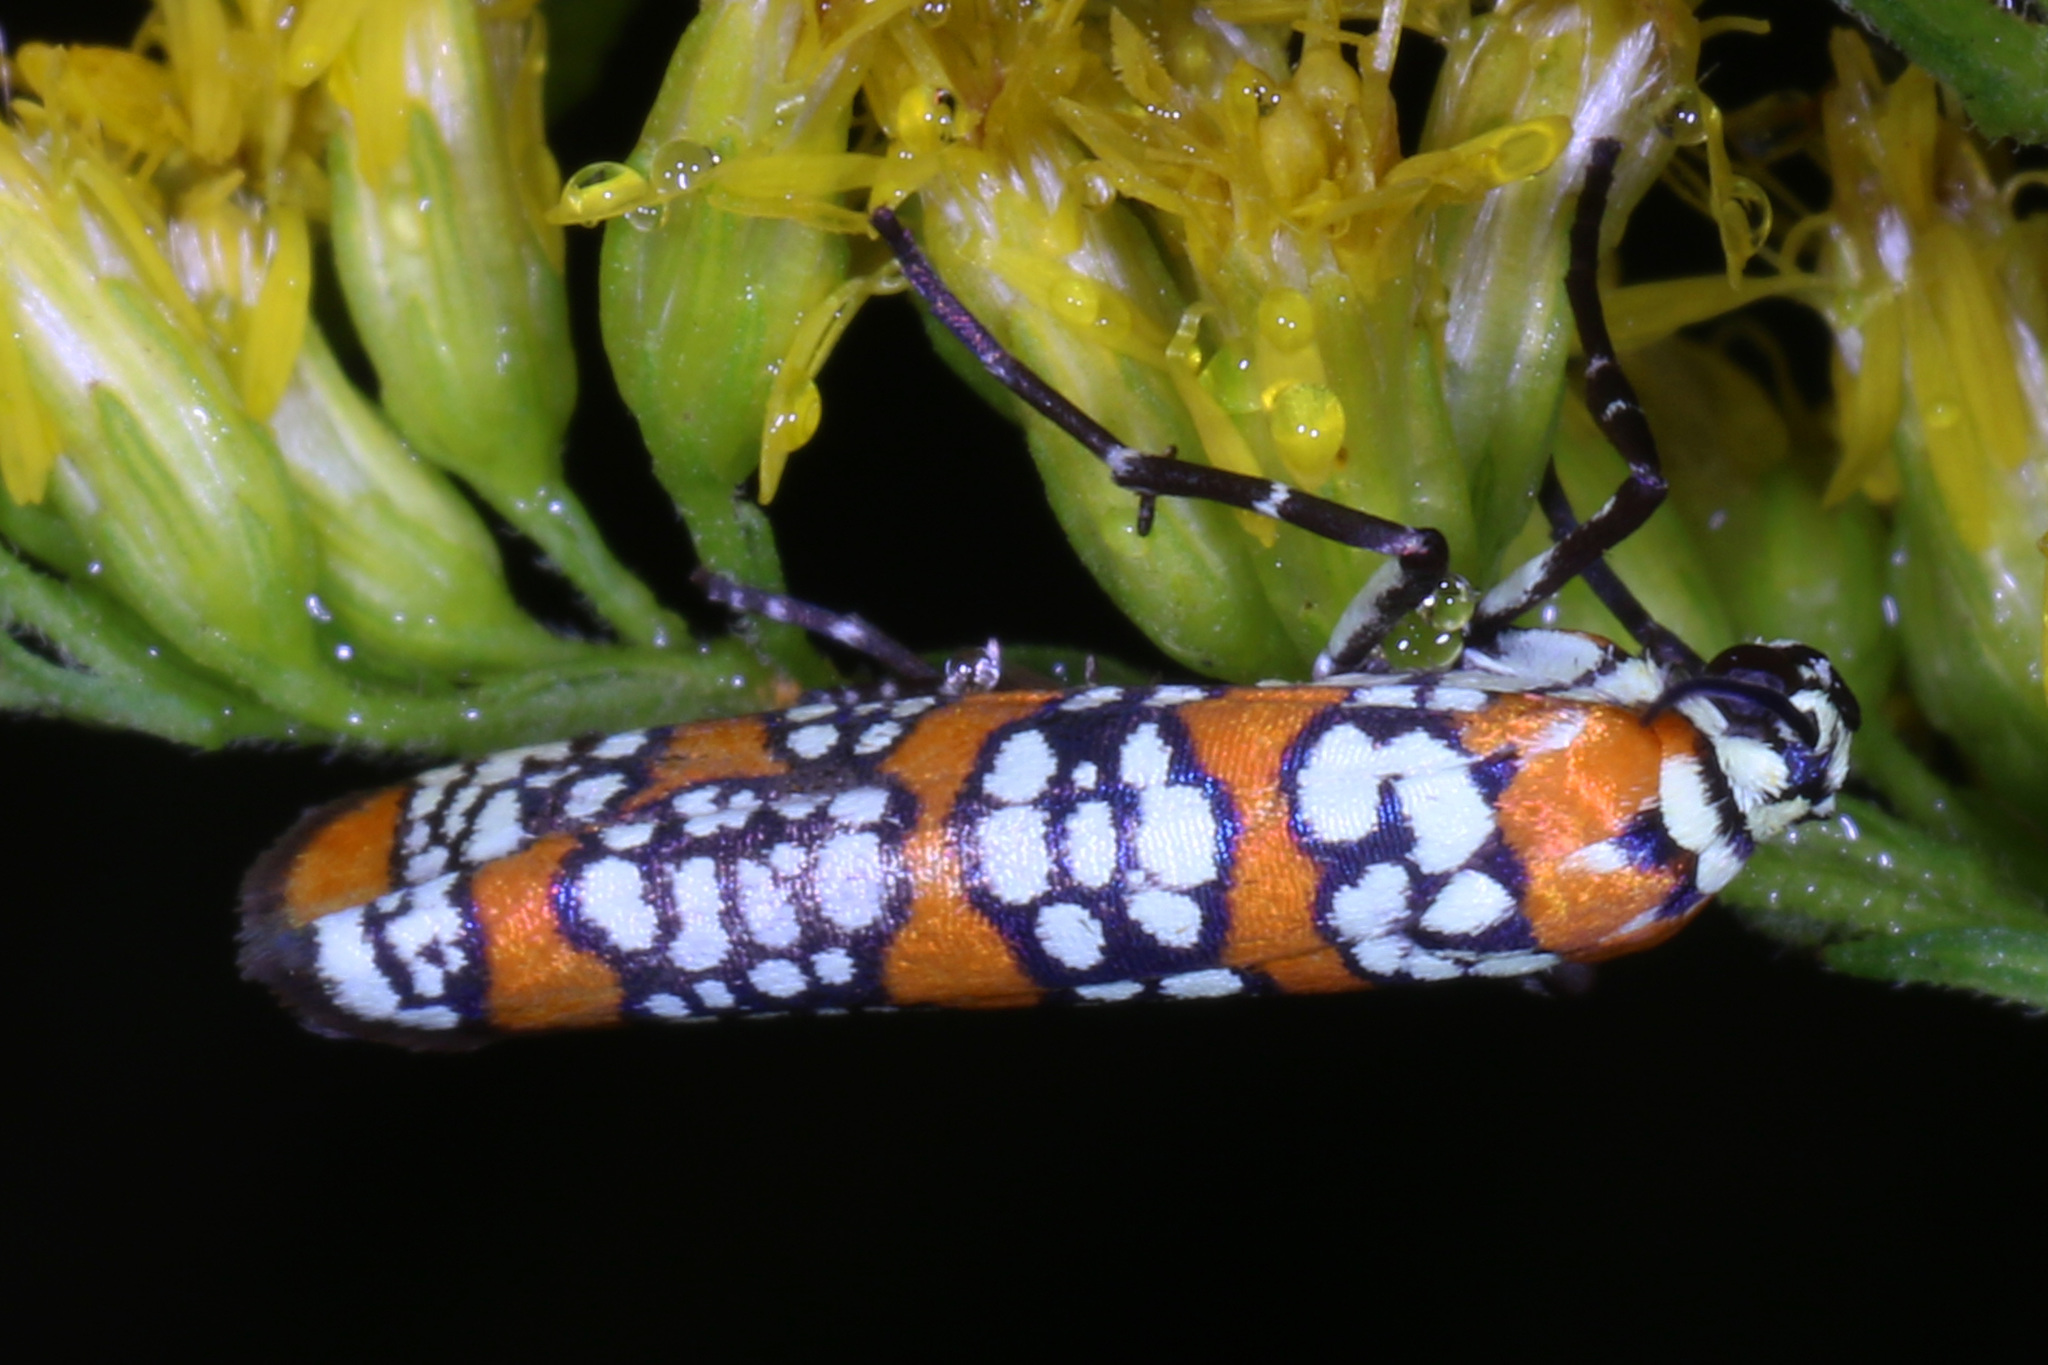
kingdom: Animalia
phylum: Arthropoda
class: Insecta
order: Lepidoptera
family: Attevidae
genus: Atteva
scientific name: Atteva punctella
